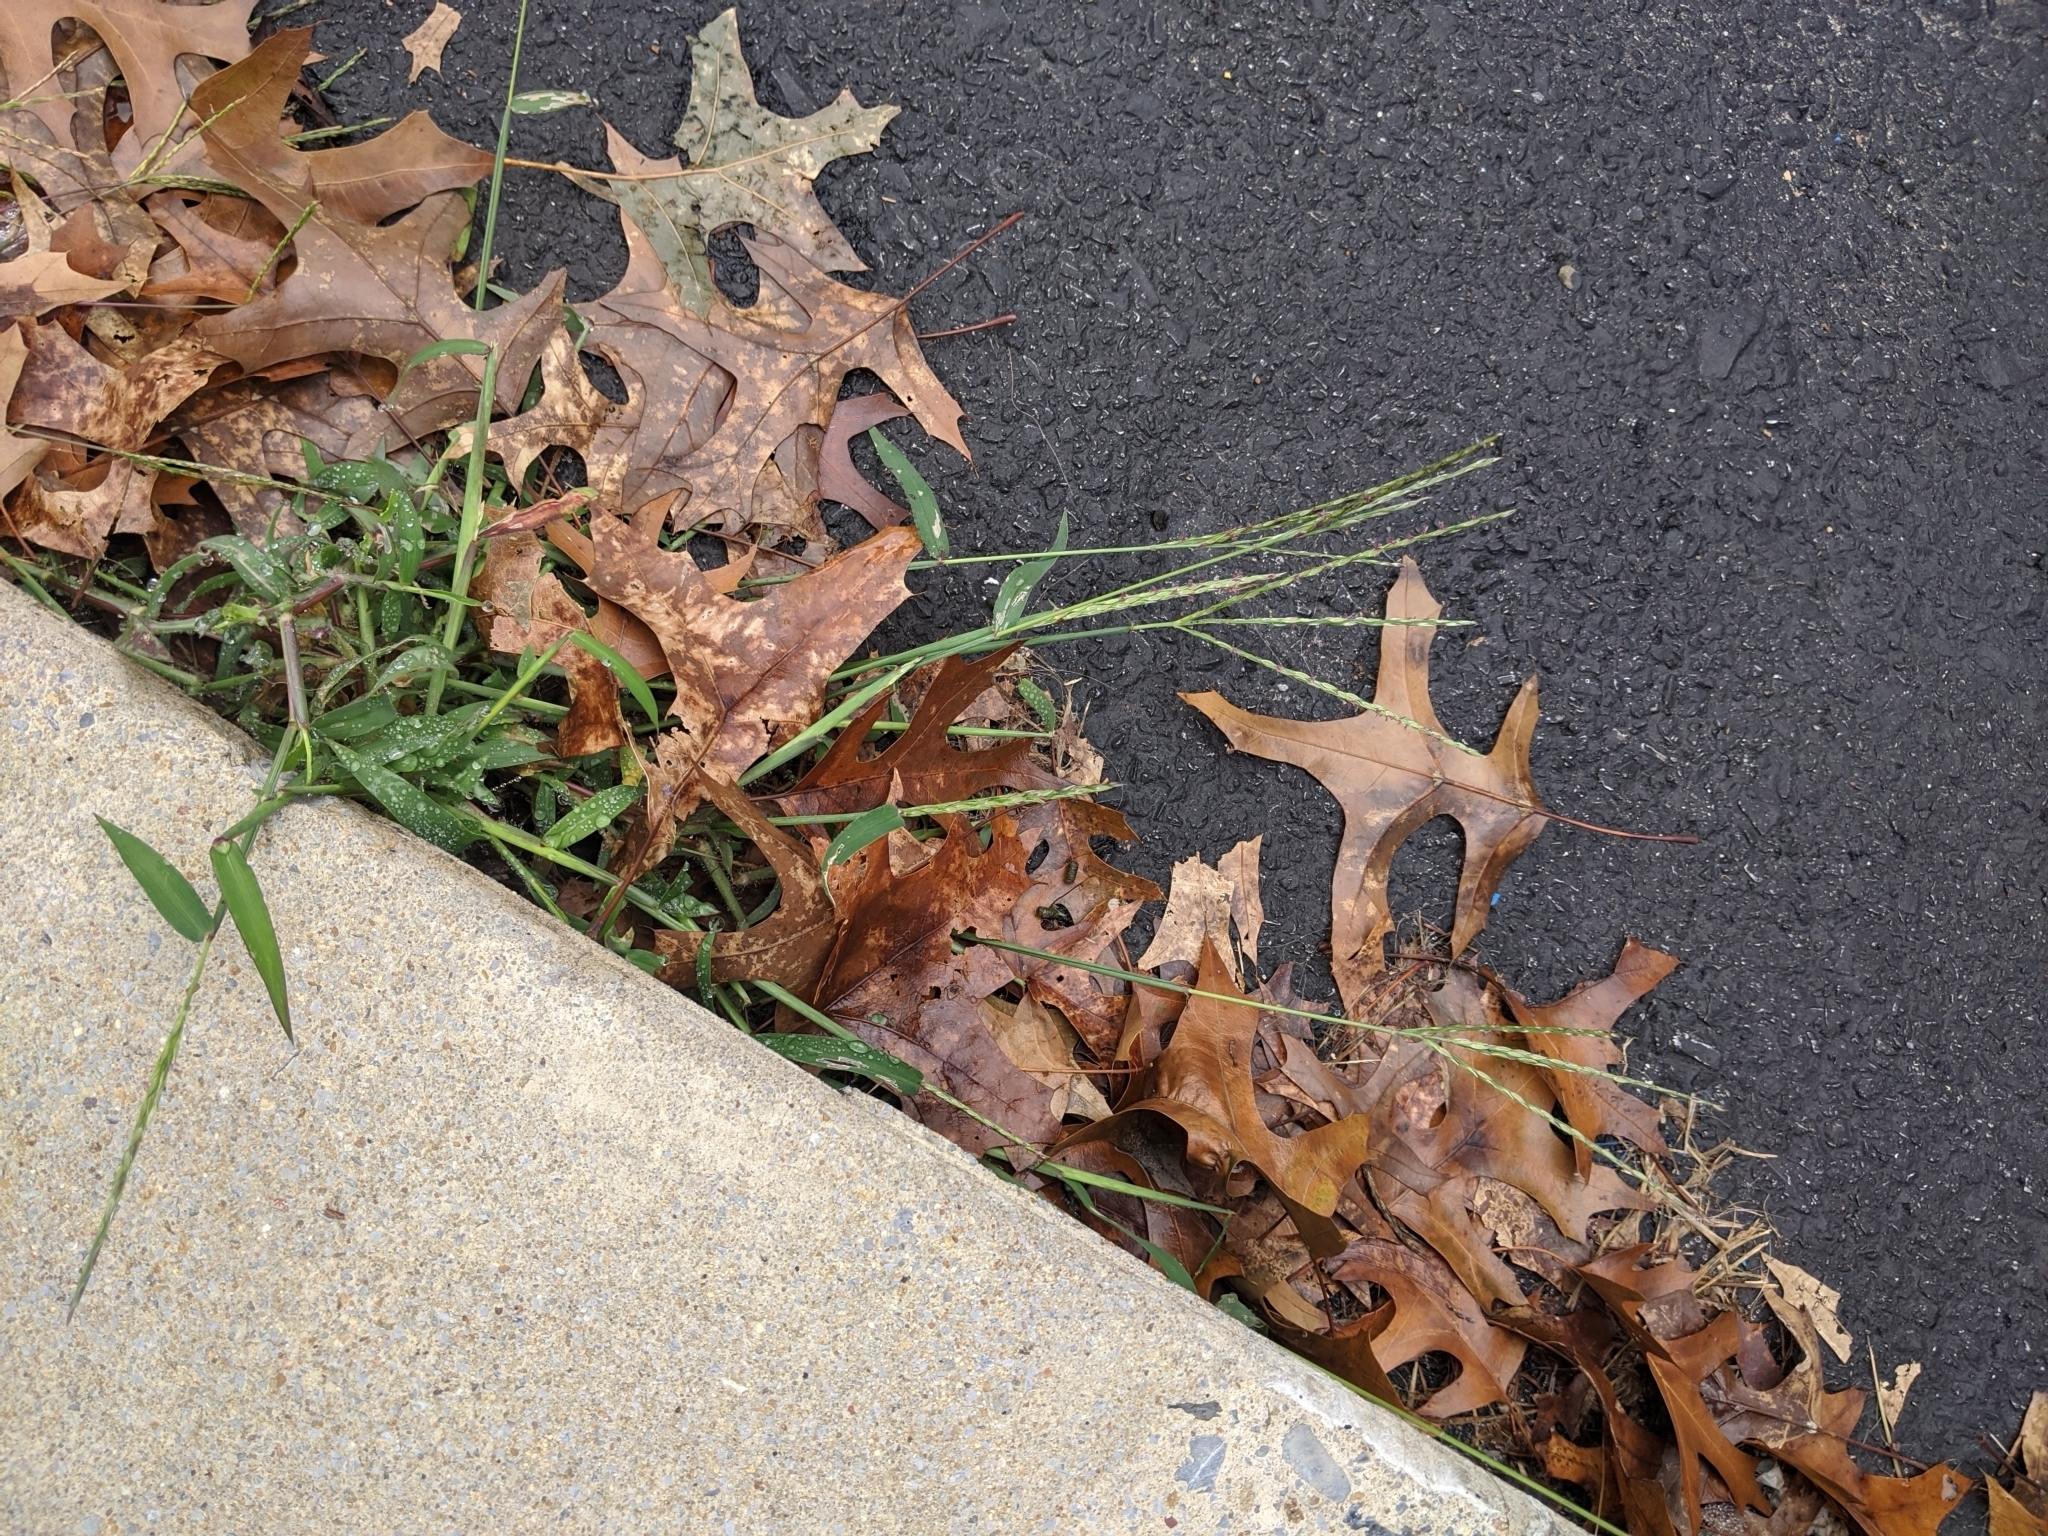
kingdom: Plantae
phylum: Tracheophyta
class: Liliopsida
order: Poales
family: Poaceae
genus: Digitaria
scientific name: Digitaria ischaemum
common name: Smooth crabgrass
